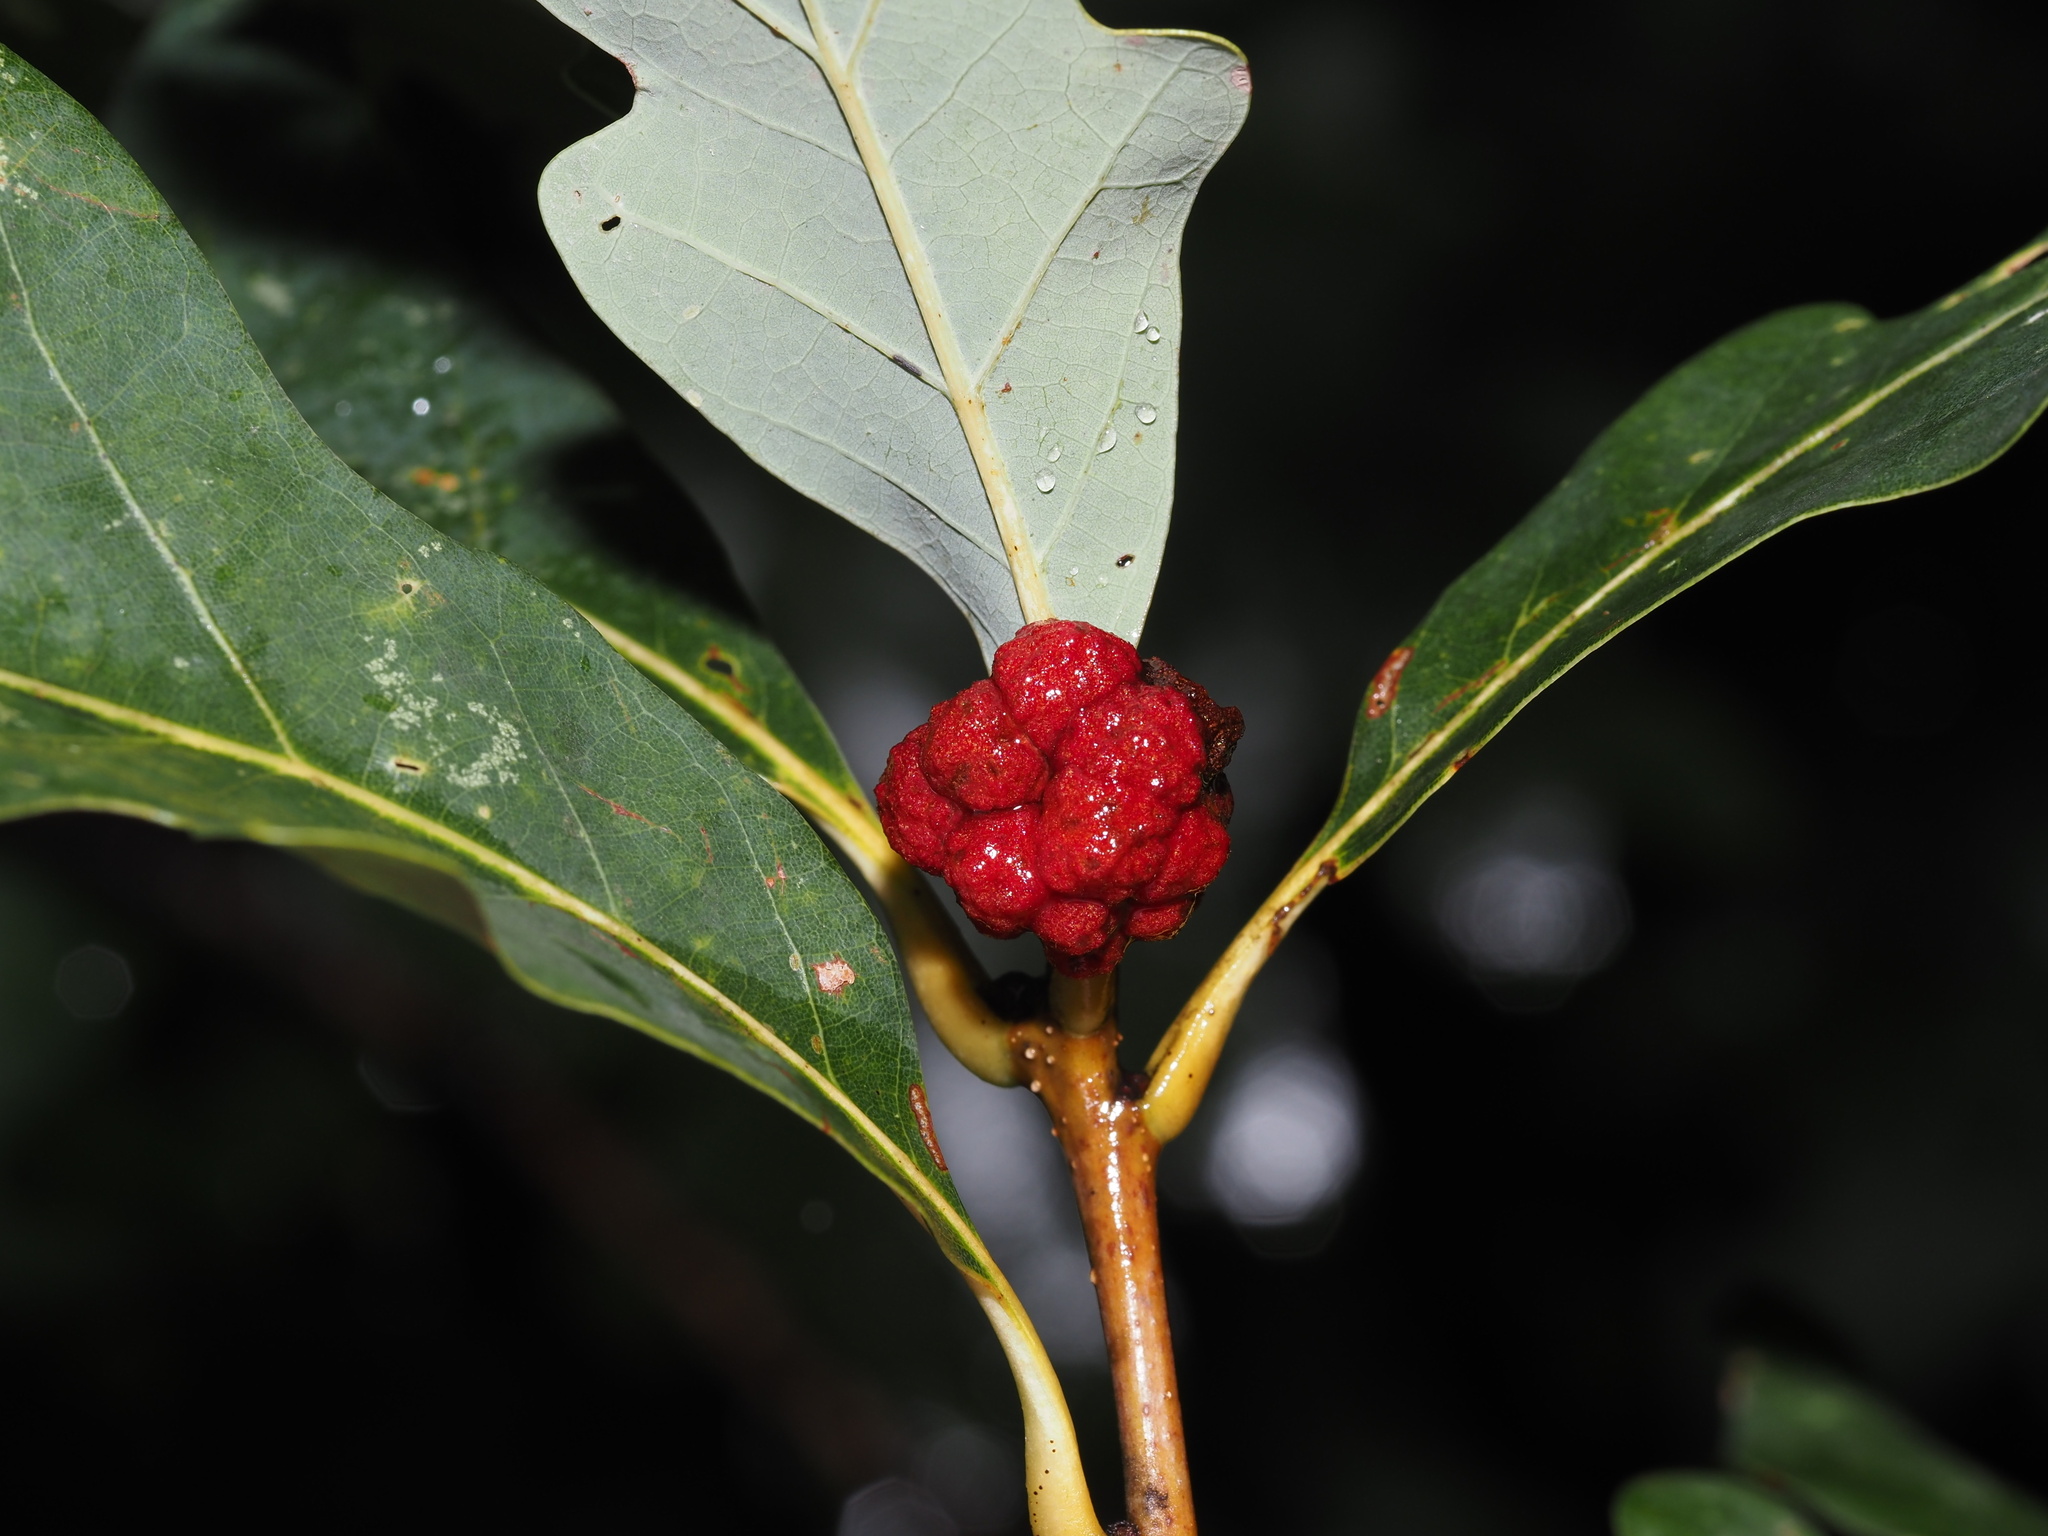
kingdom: Animalia
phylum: Arthropoda
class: Insecta
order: Hymenoptera
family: Cynipidae
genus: Andricus
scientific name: Andricus
